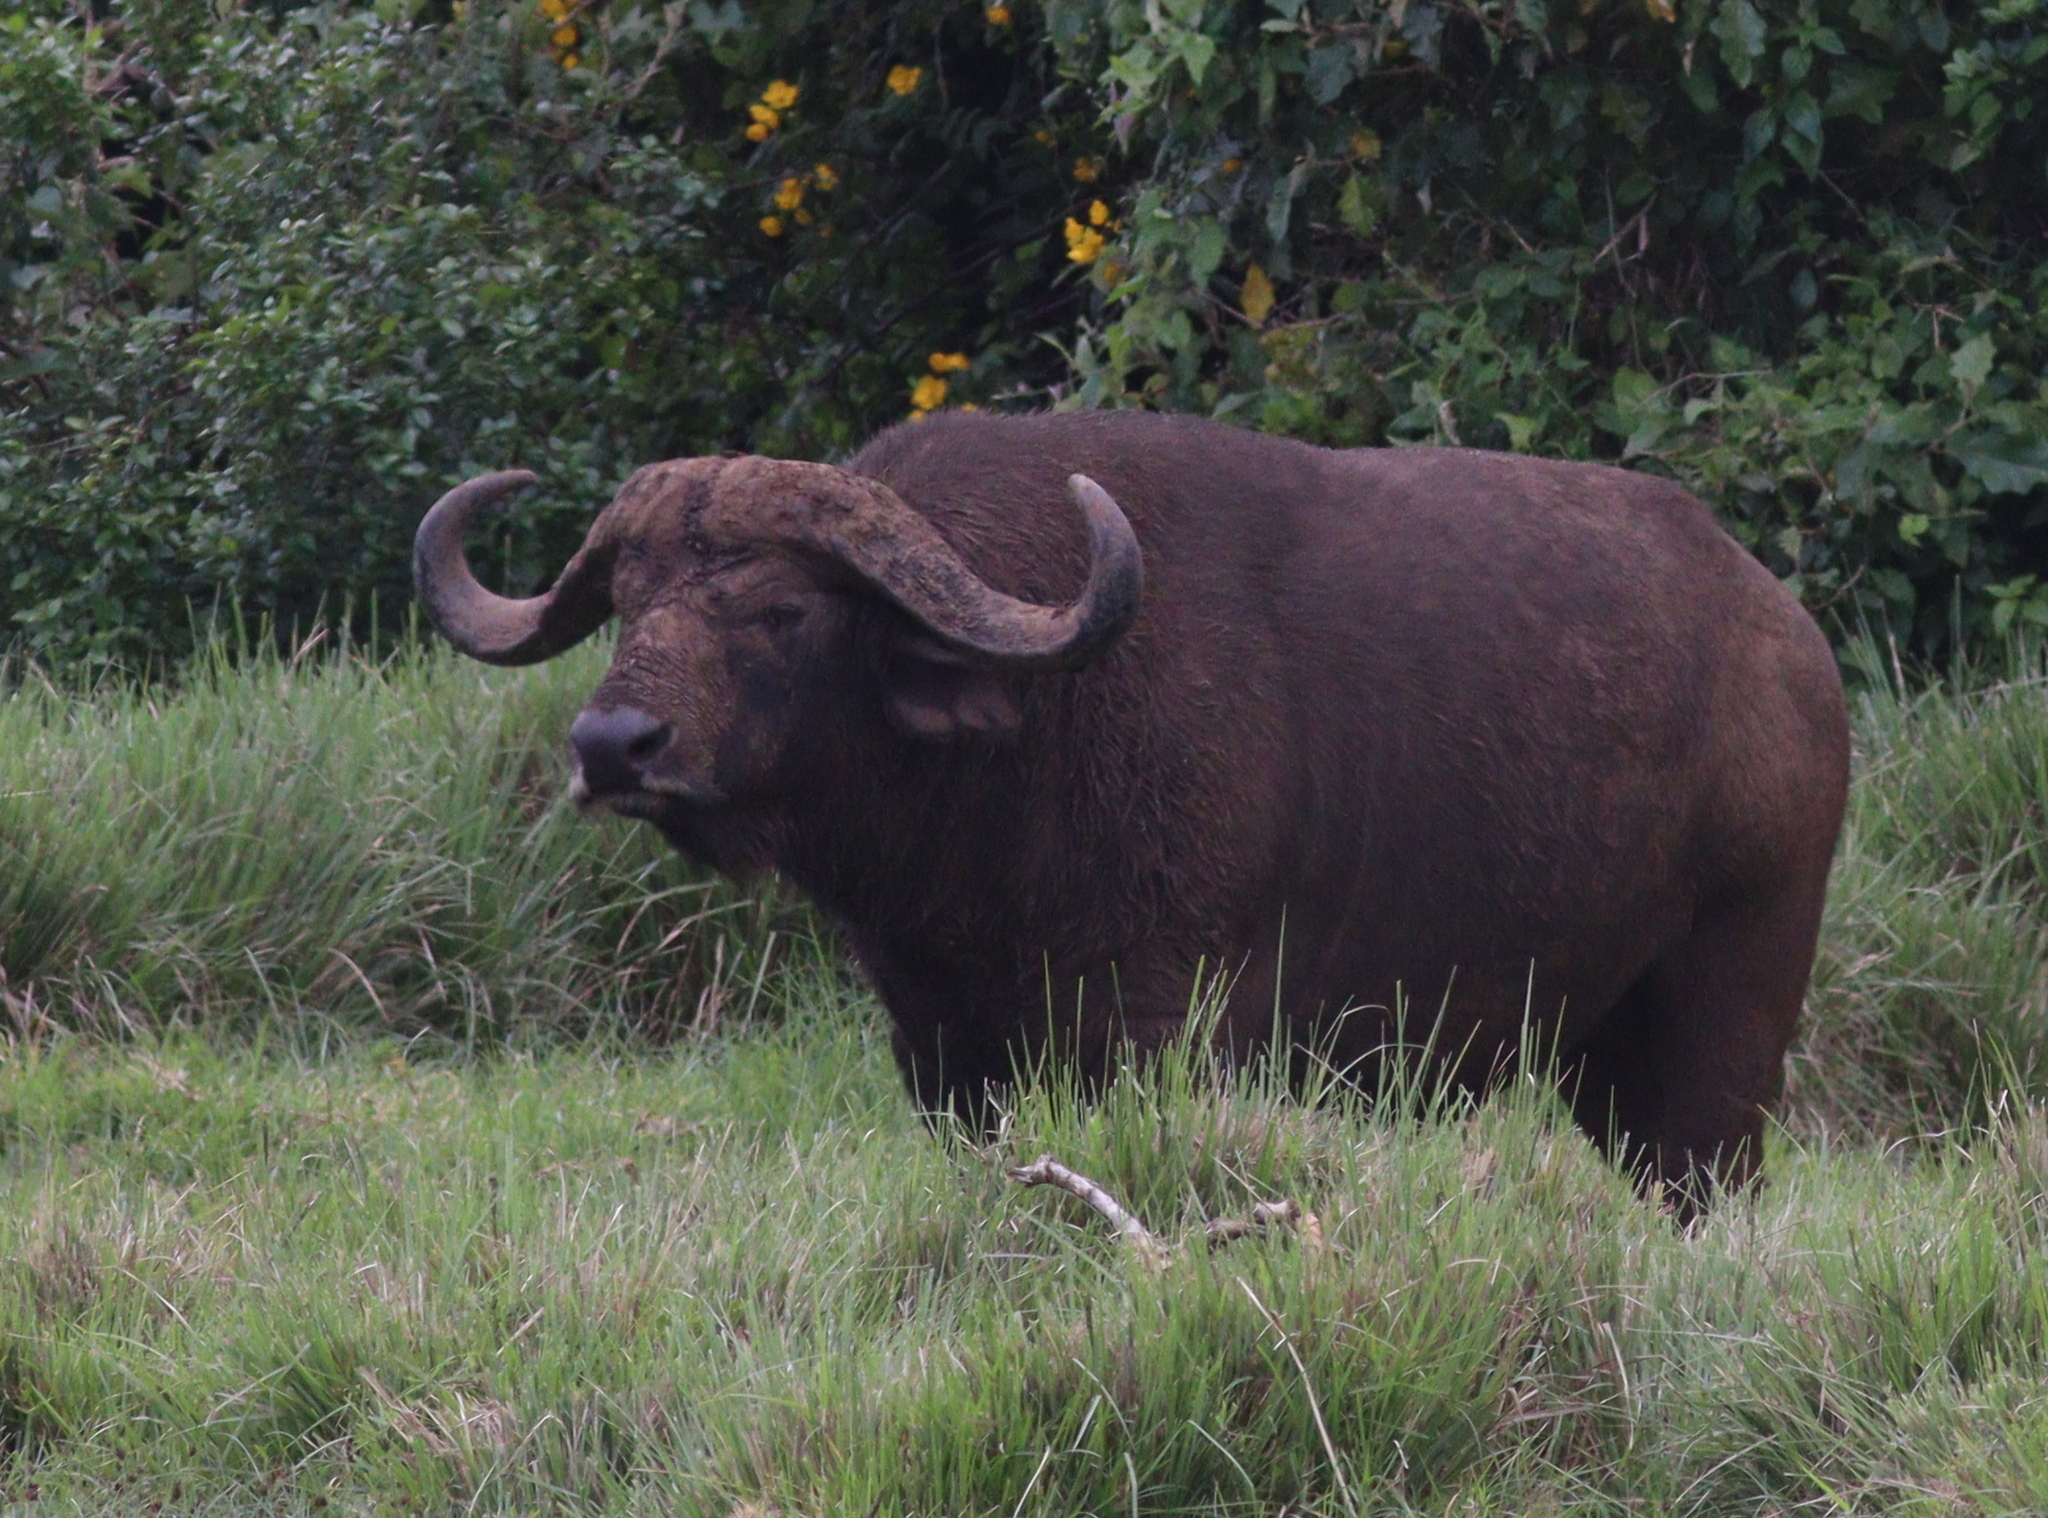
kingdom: Animalia
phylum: Chordata
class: Mammalia
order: Artiodactyla
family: Bovidae
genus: Syncerus
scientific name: Syncerus caffer
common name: African buffalo
